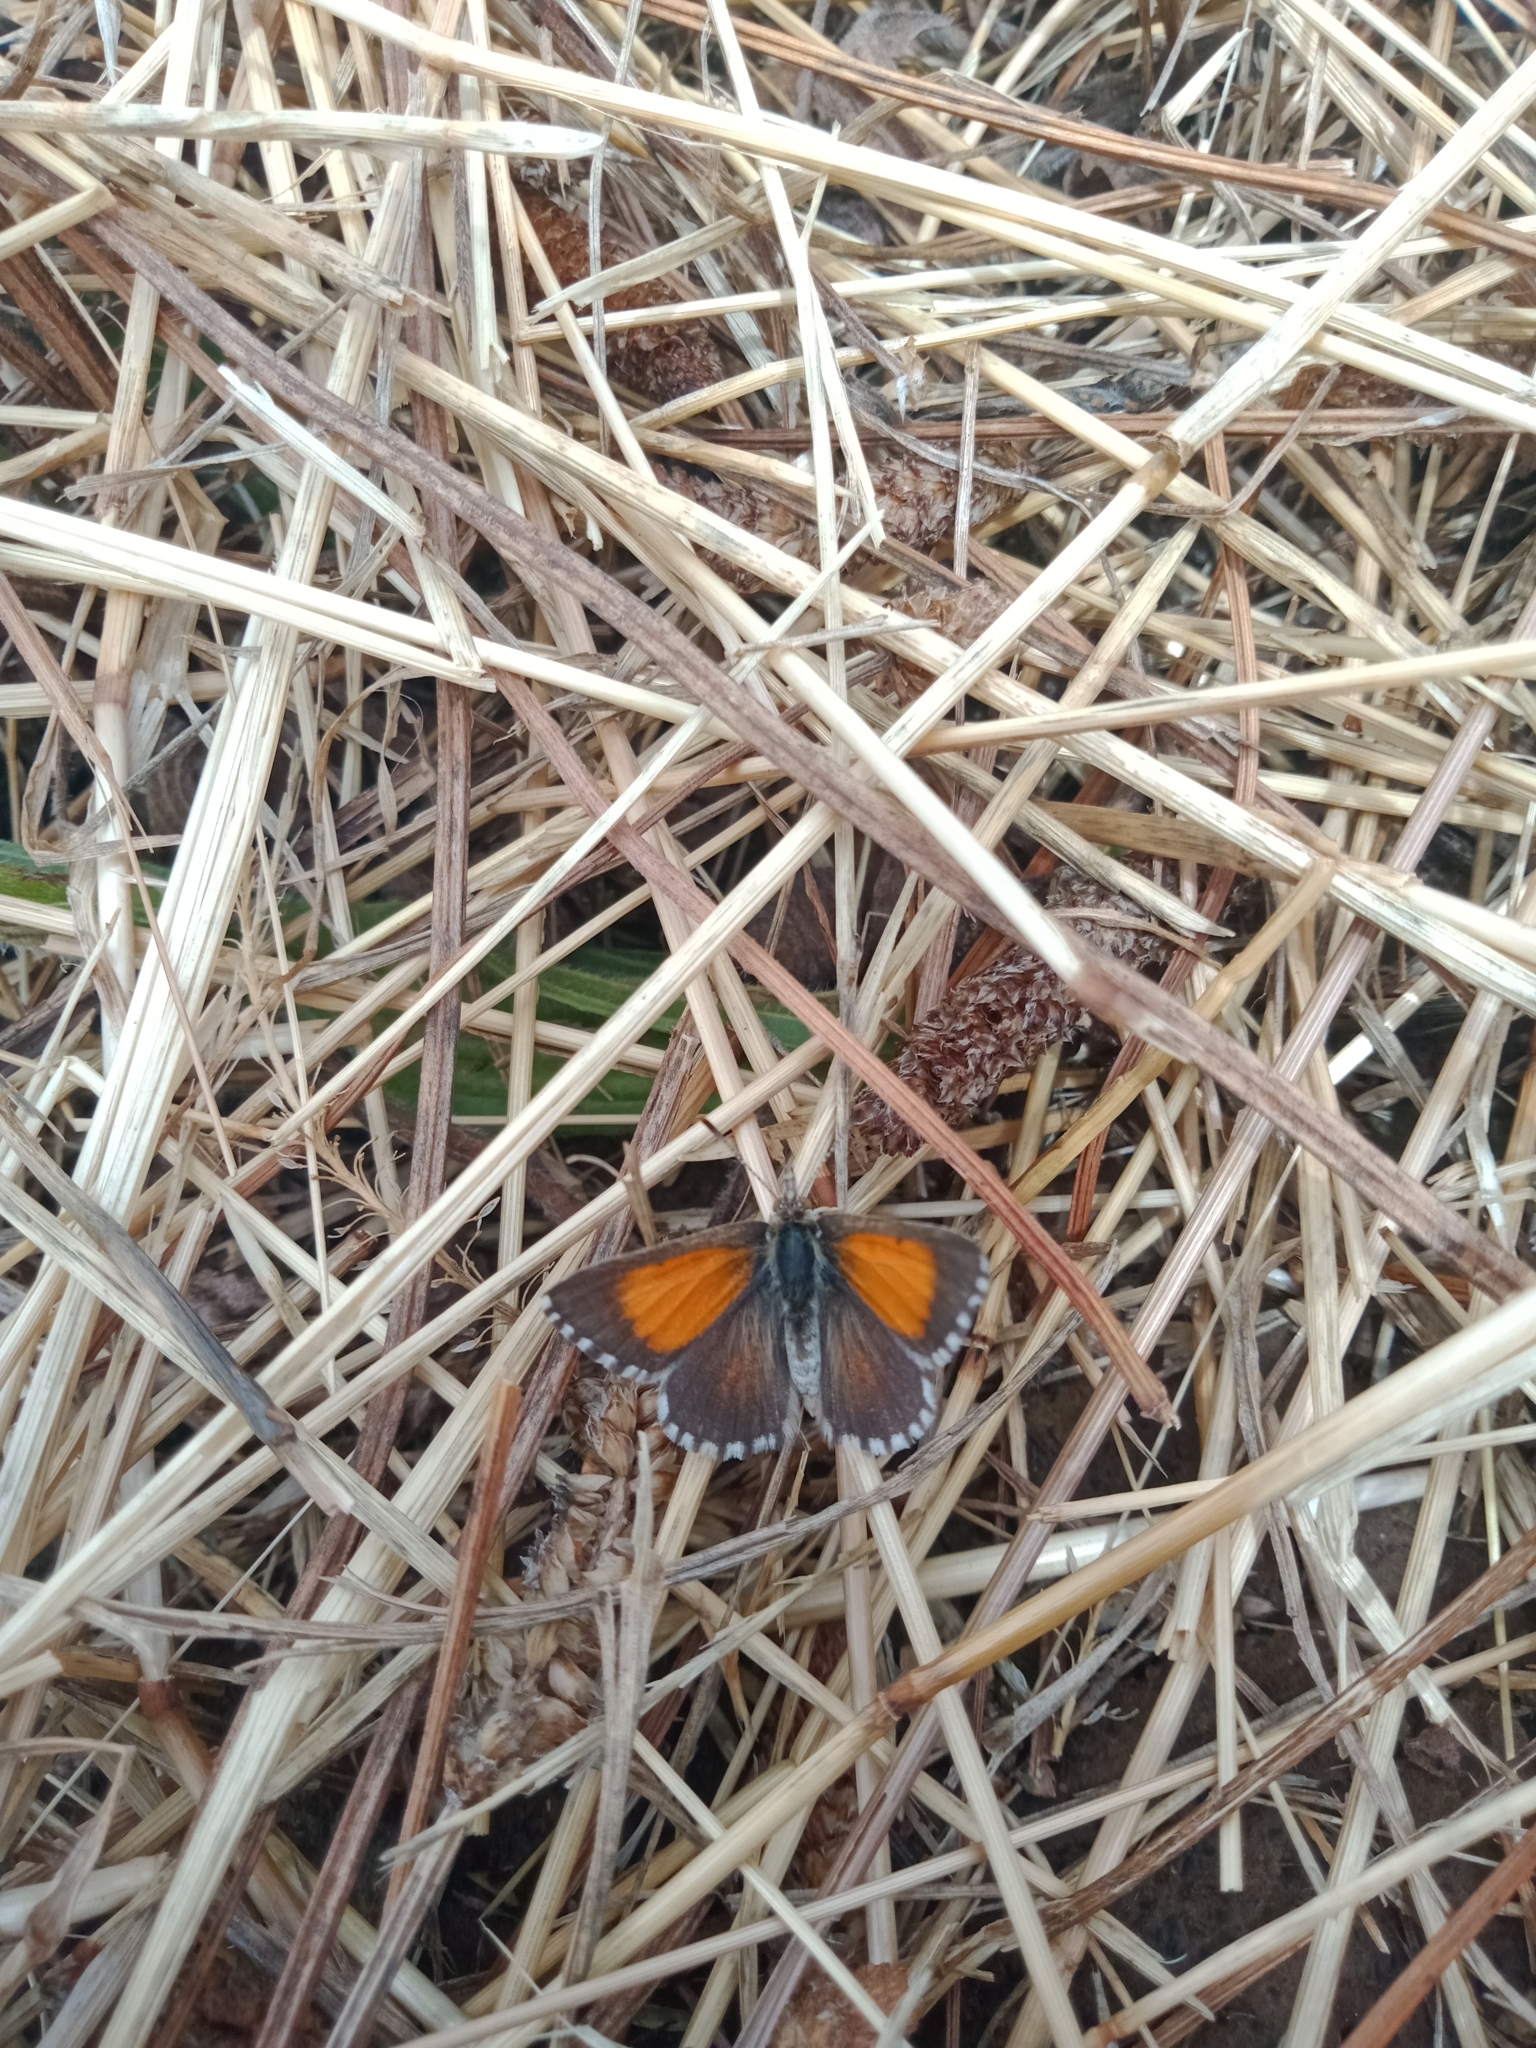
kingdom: Animalia
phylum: Arthropoda
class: Insecta
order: Lepidoptera
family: Lycaenidae
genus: Lucia
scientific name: Lucia limbaria
